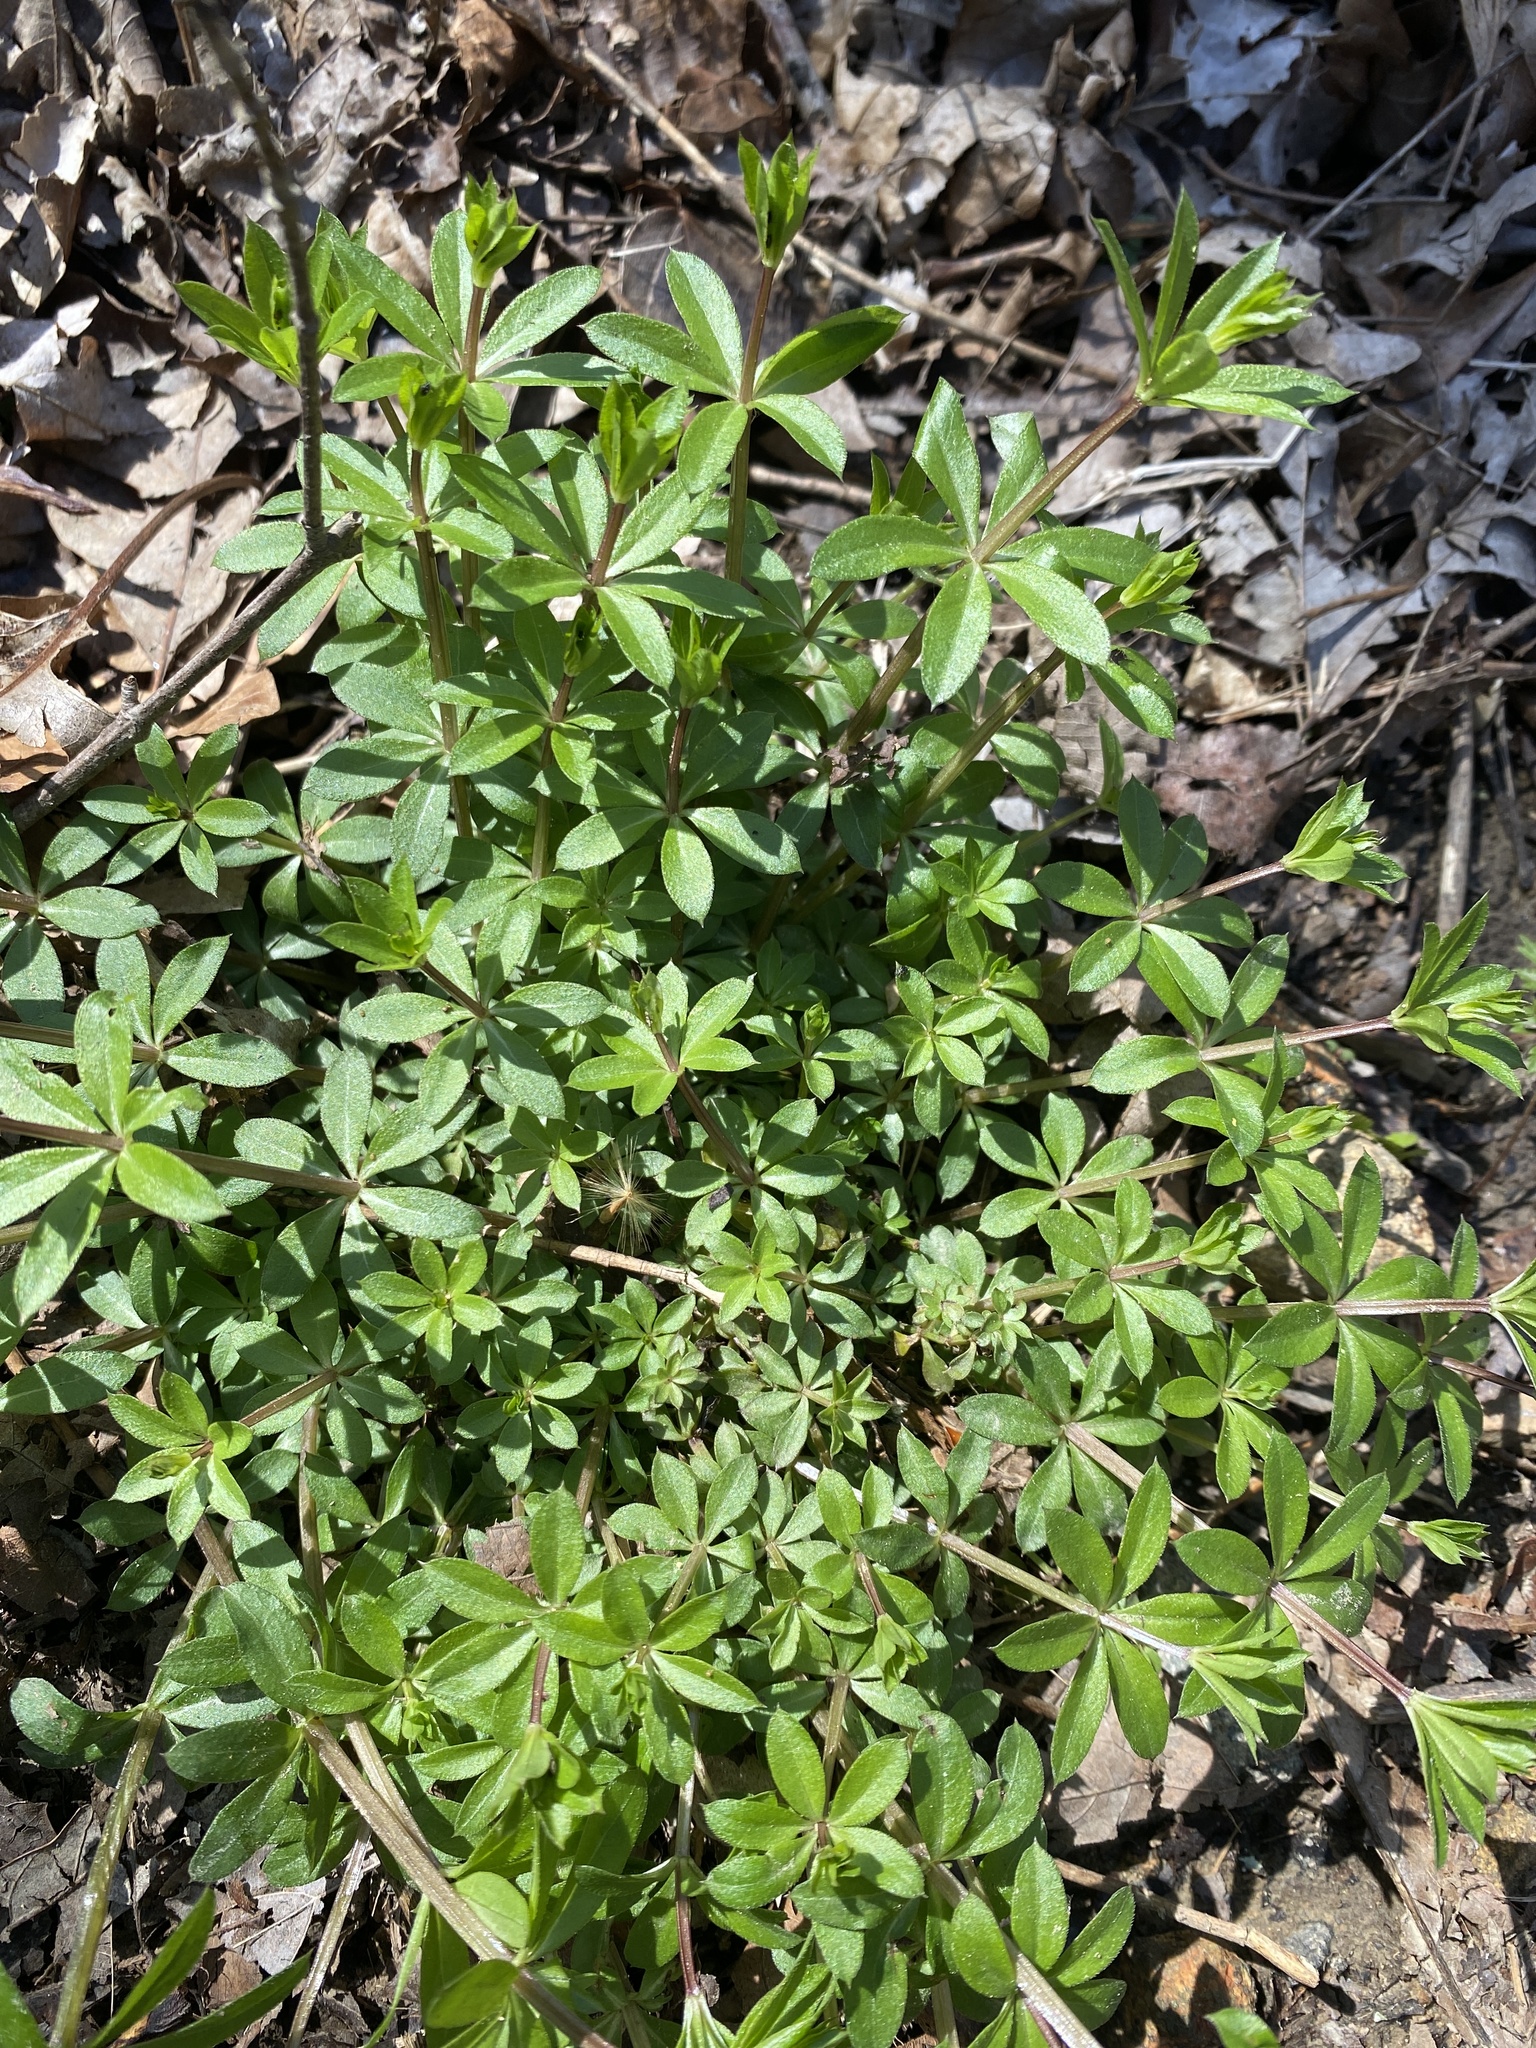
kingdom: Plantae
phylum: Tracheophyta
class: Magnoliopsida
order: Gentianales
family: Rubiaceae
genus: Galium
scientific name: Galium triflorum
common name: Fragrant bedstraw
